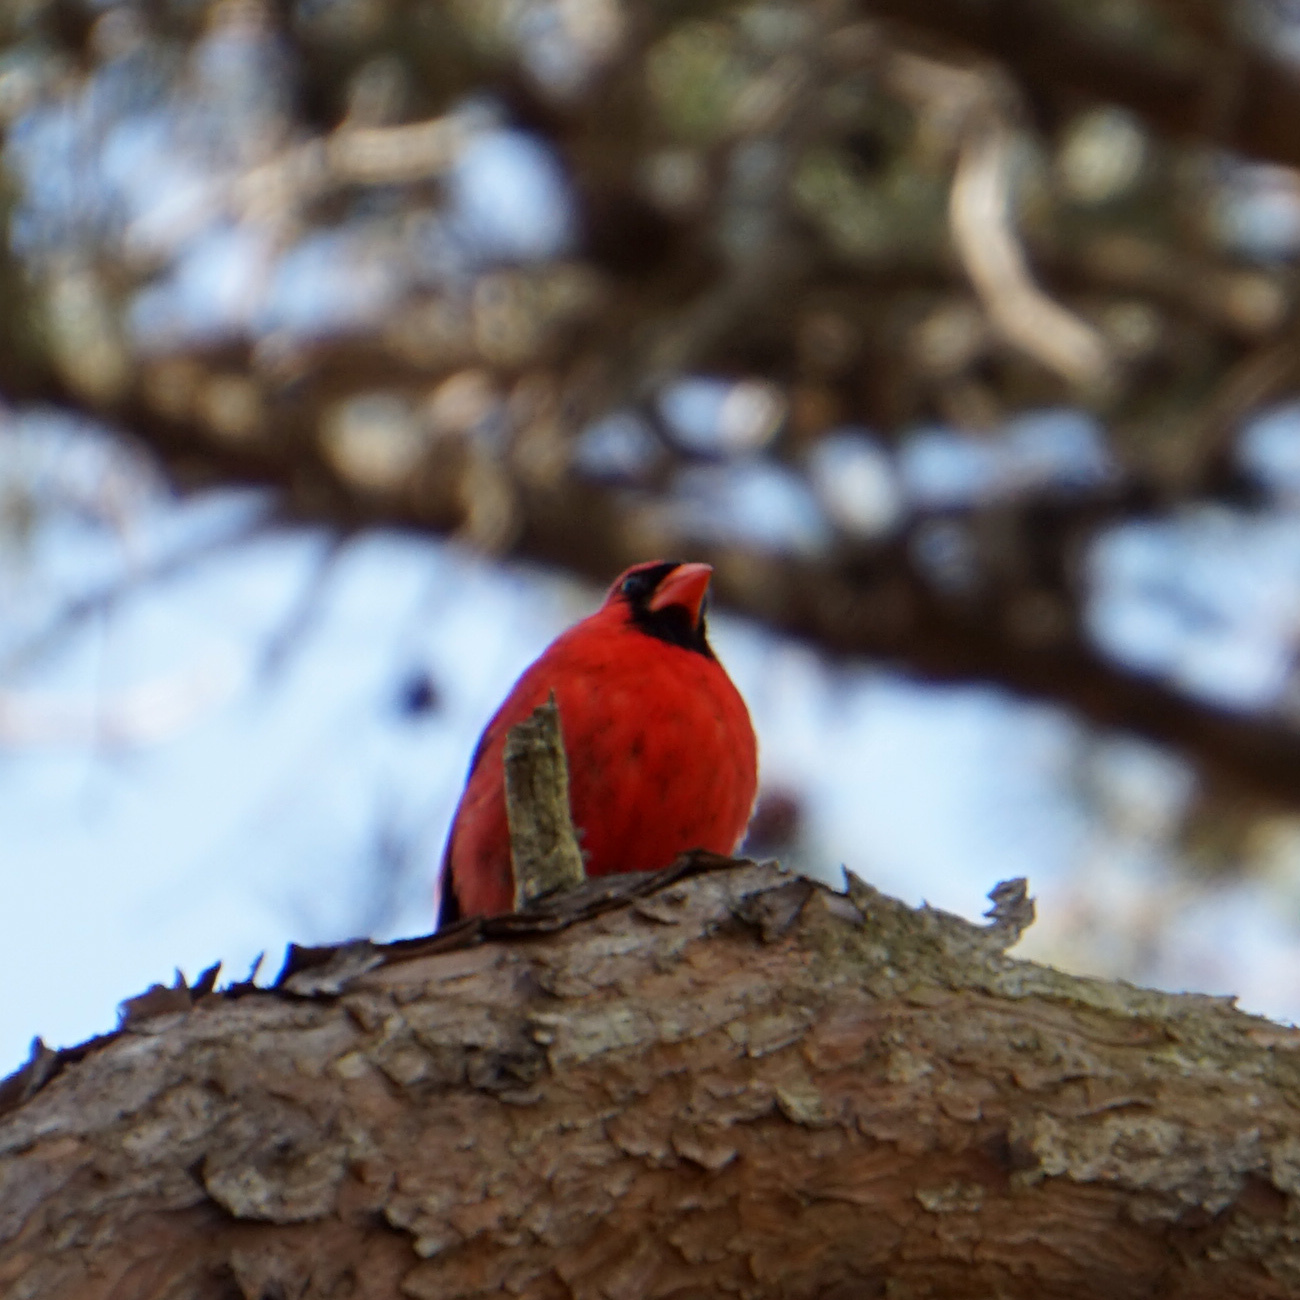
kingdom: Animalia
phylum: Chordata
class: Aves
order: Passeriformes
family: Cardinalidae
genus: Cardinalis
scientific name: Cardinalis cardinalis
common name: Northern cardinal
